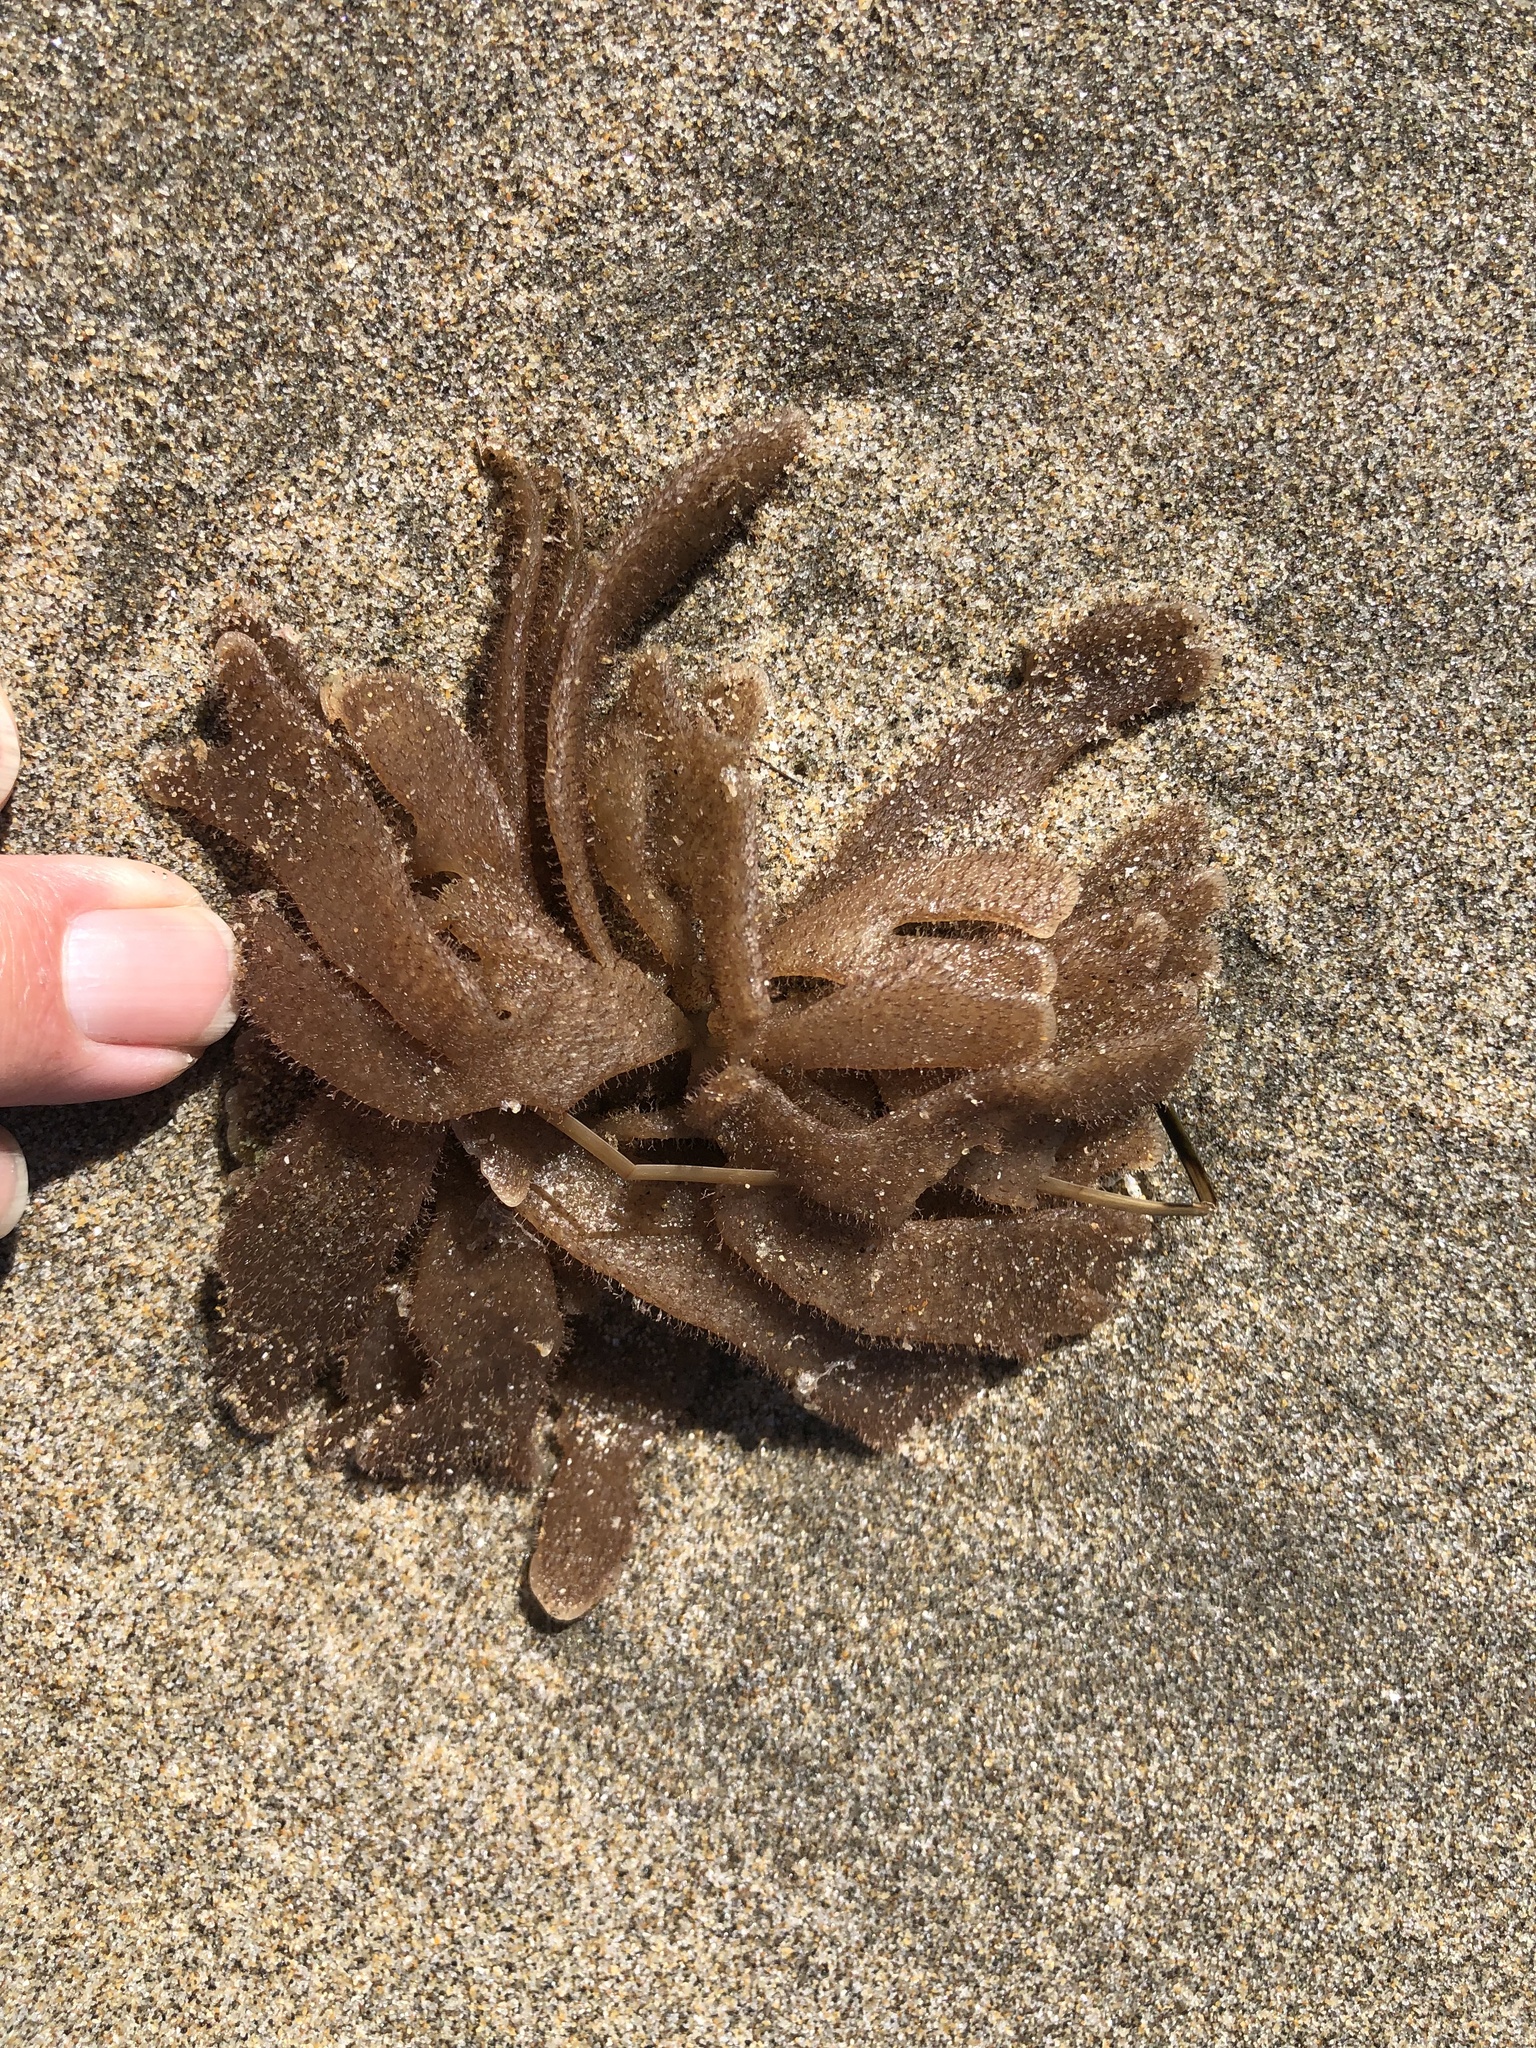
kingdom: Animalia
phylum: Bryozoa
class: Gymnolaemata
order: Ctenostomatida
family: Flustrellidridae
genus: Flustrellidra
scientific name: Flustrellidra corniculata
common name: Spiny leather bryozoan
